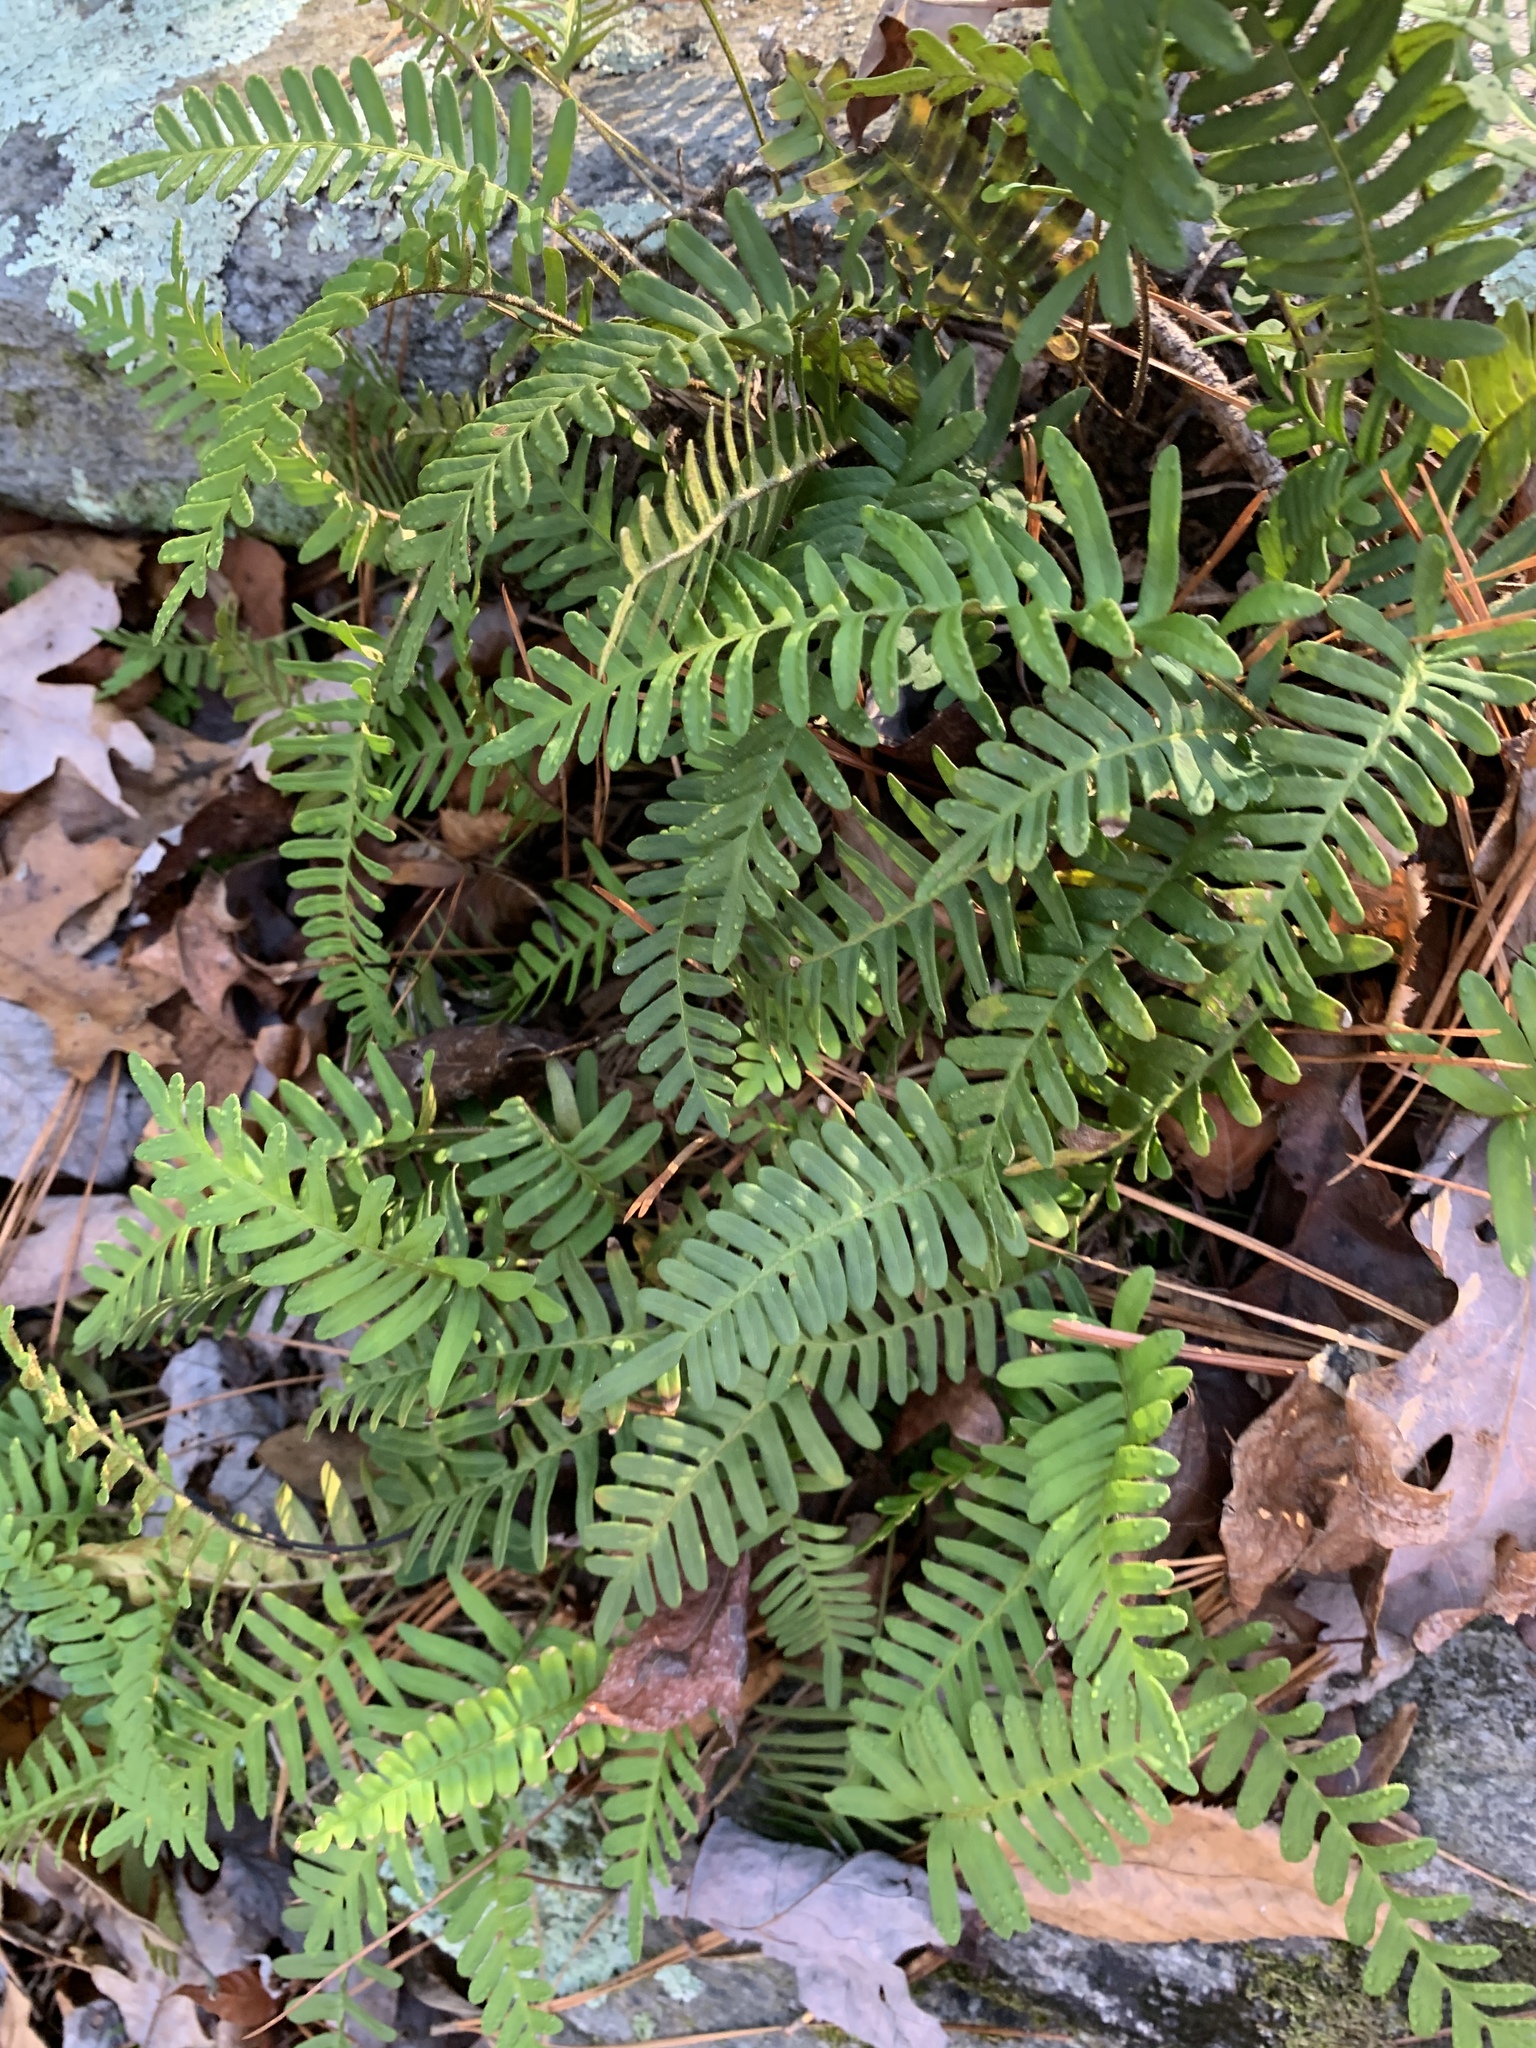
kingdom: Plantae
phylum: Tracheophyta
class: Polypodiopsida
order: Polypodiales
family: Polypodiaceae
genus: Pleopeltis
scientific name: Pleopeltis michauxiana
